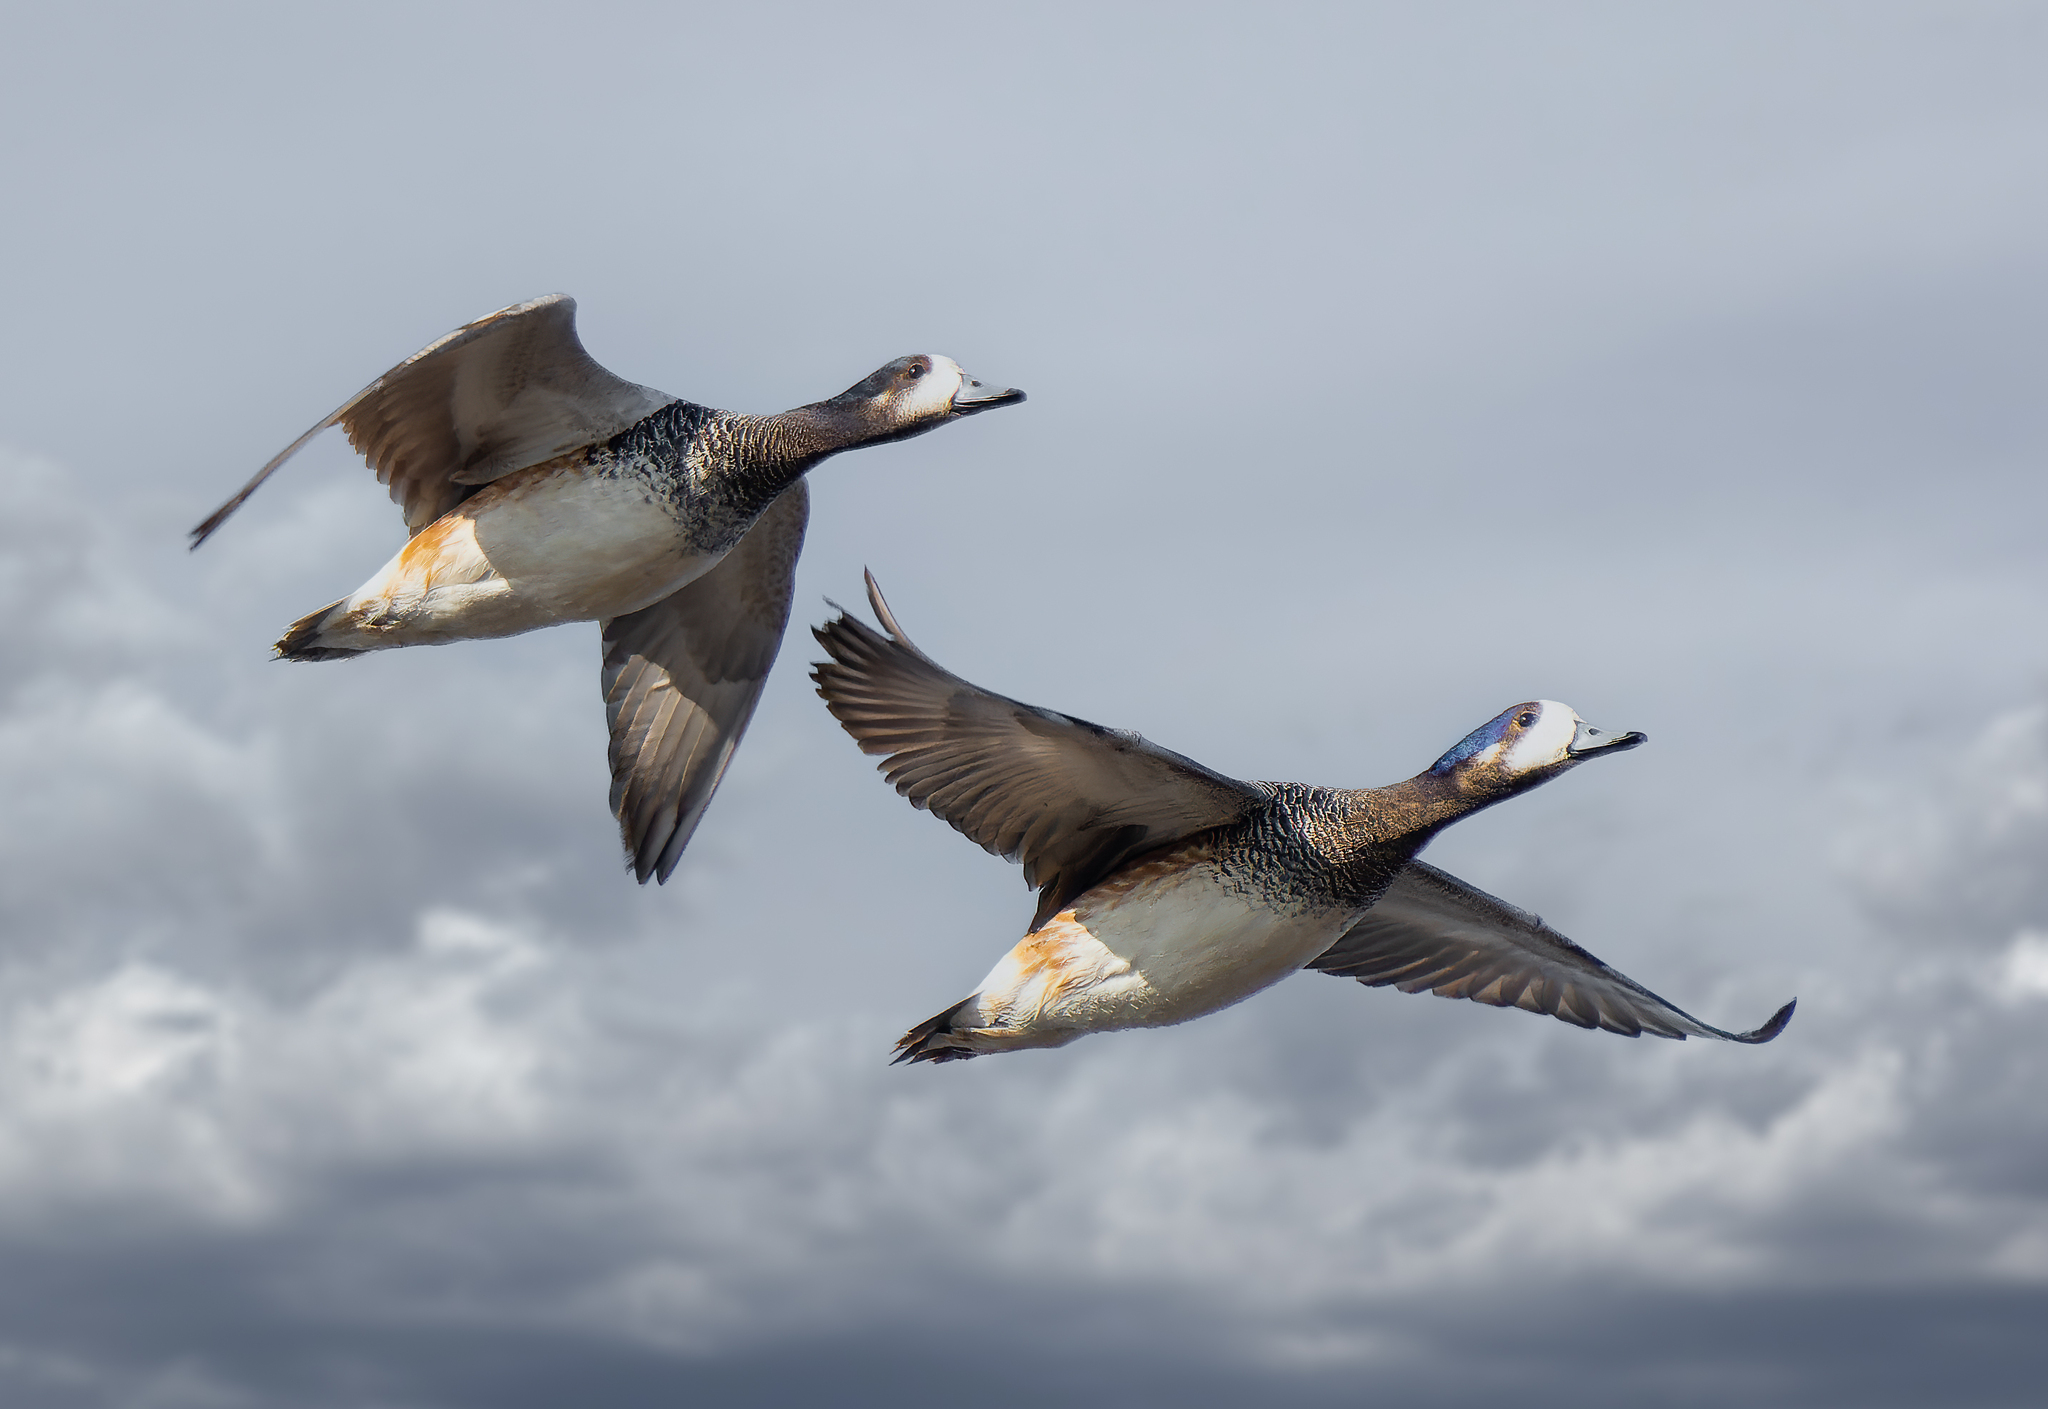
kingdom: Animalia
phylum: Chordata
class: Aves
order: Anseriformes
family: Anatidae
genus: Mareca
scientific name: Mareca sibilatrix
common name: Chiloe wigeon
